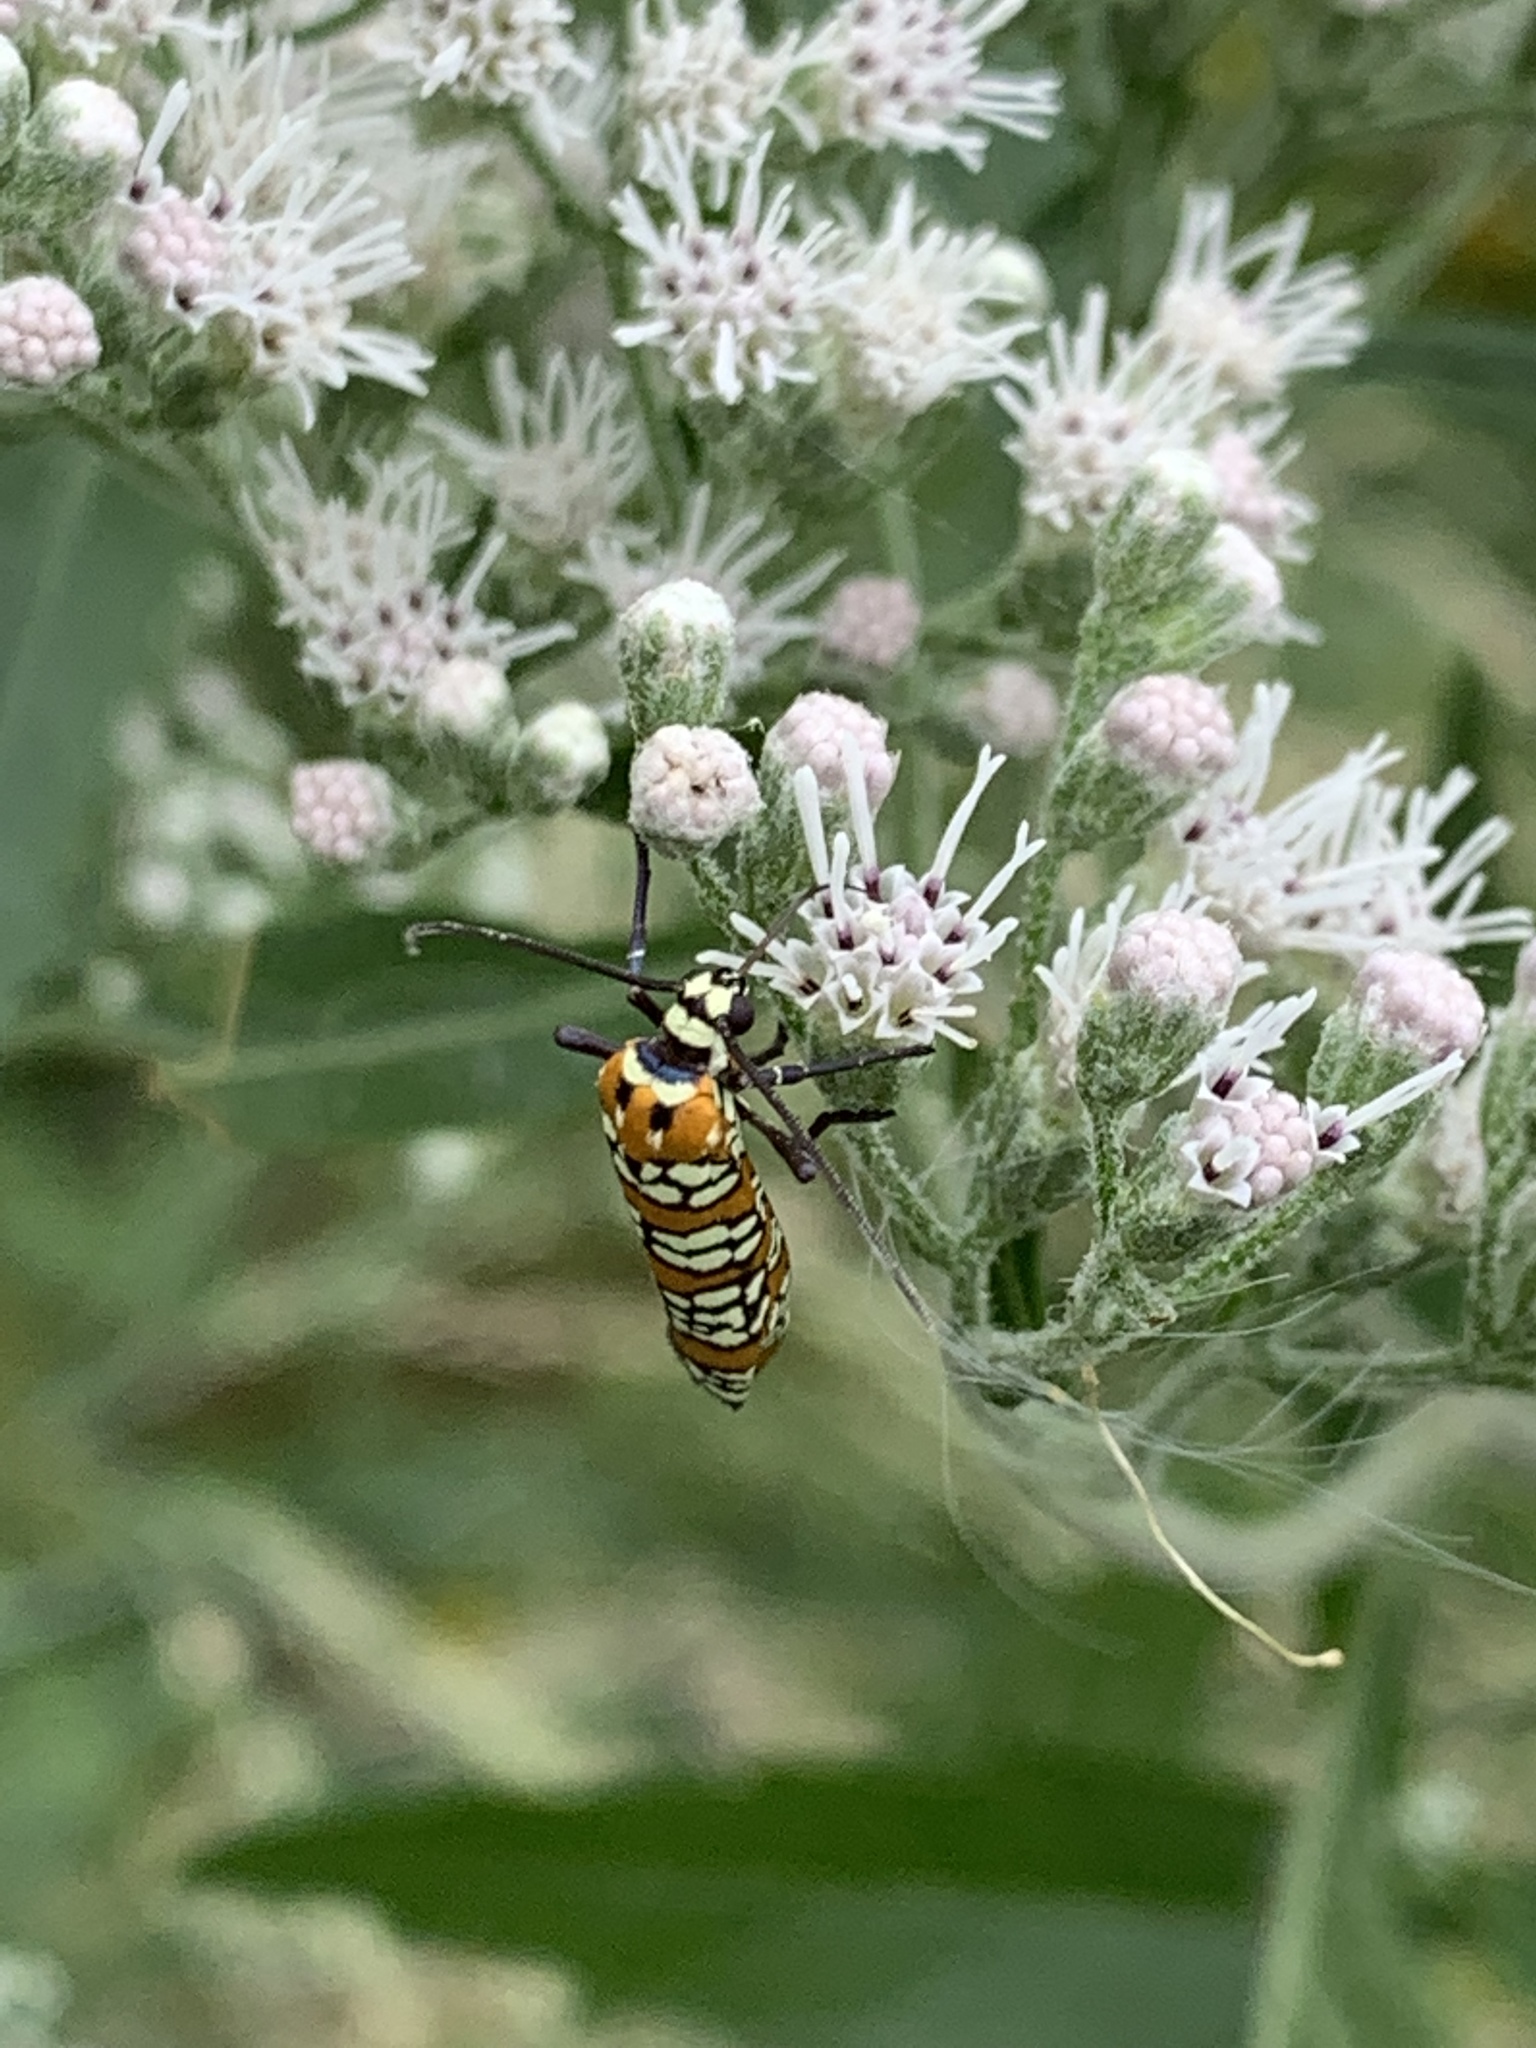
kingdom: Animalia
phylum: Arthropoda
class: Insecta
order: Lepidoptera
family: Attevidae
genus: Atteva
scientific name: Atteva punctella
